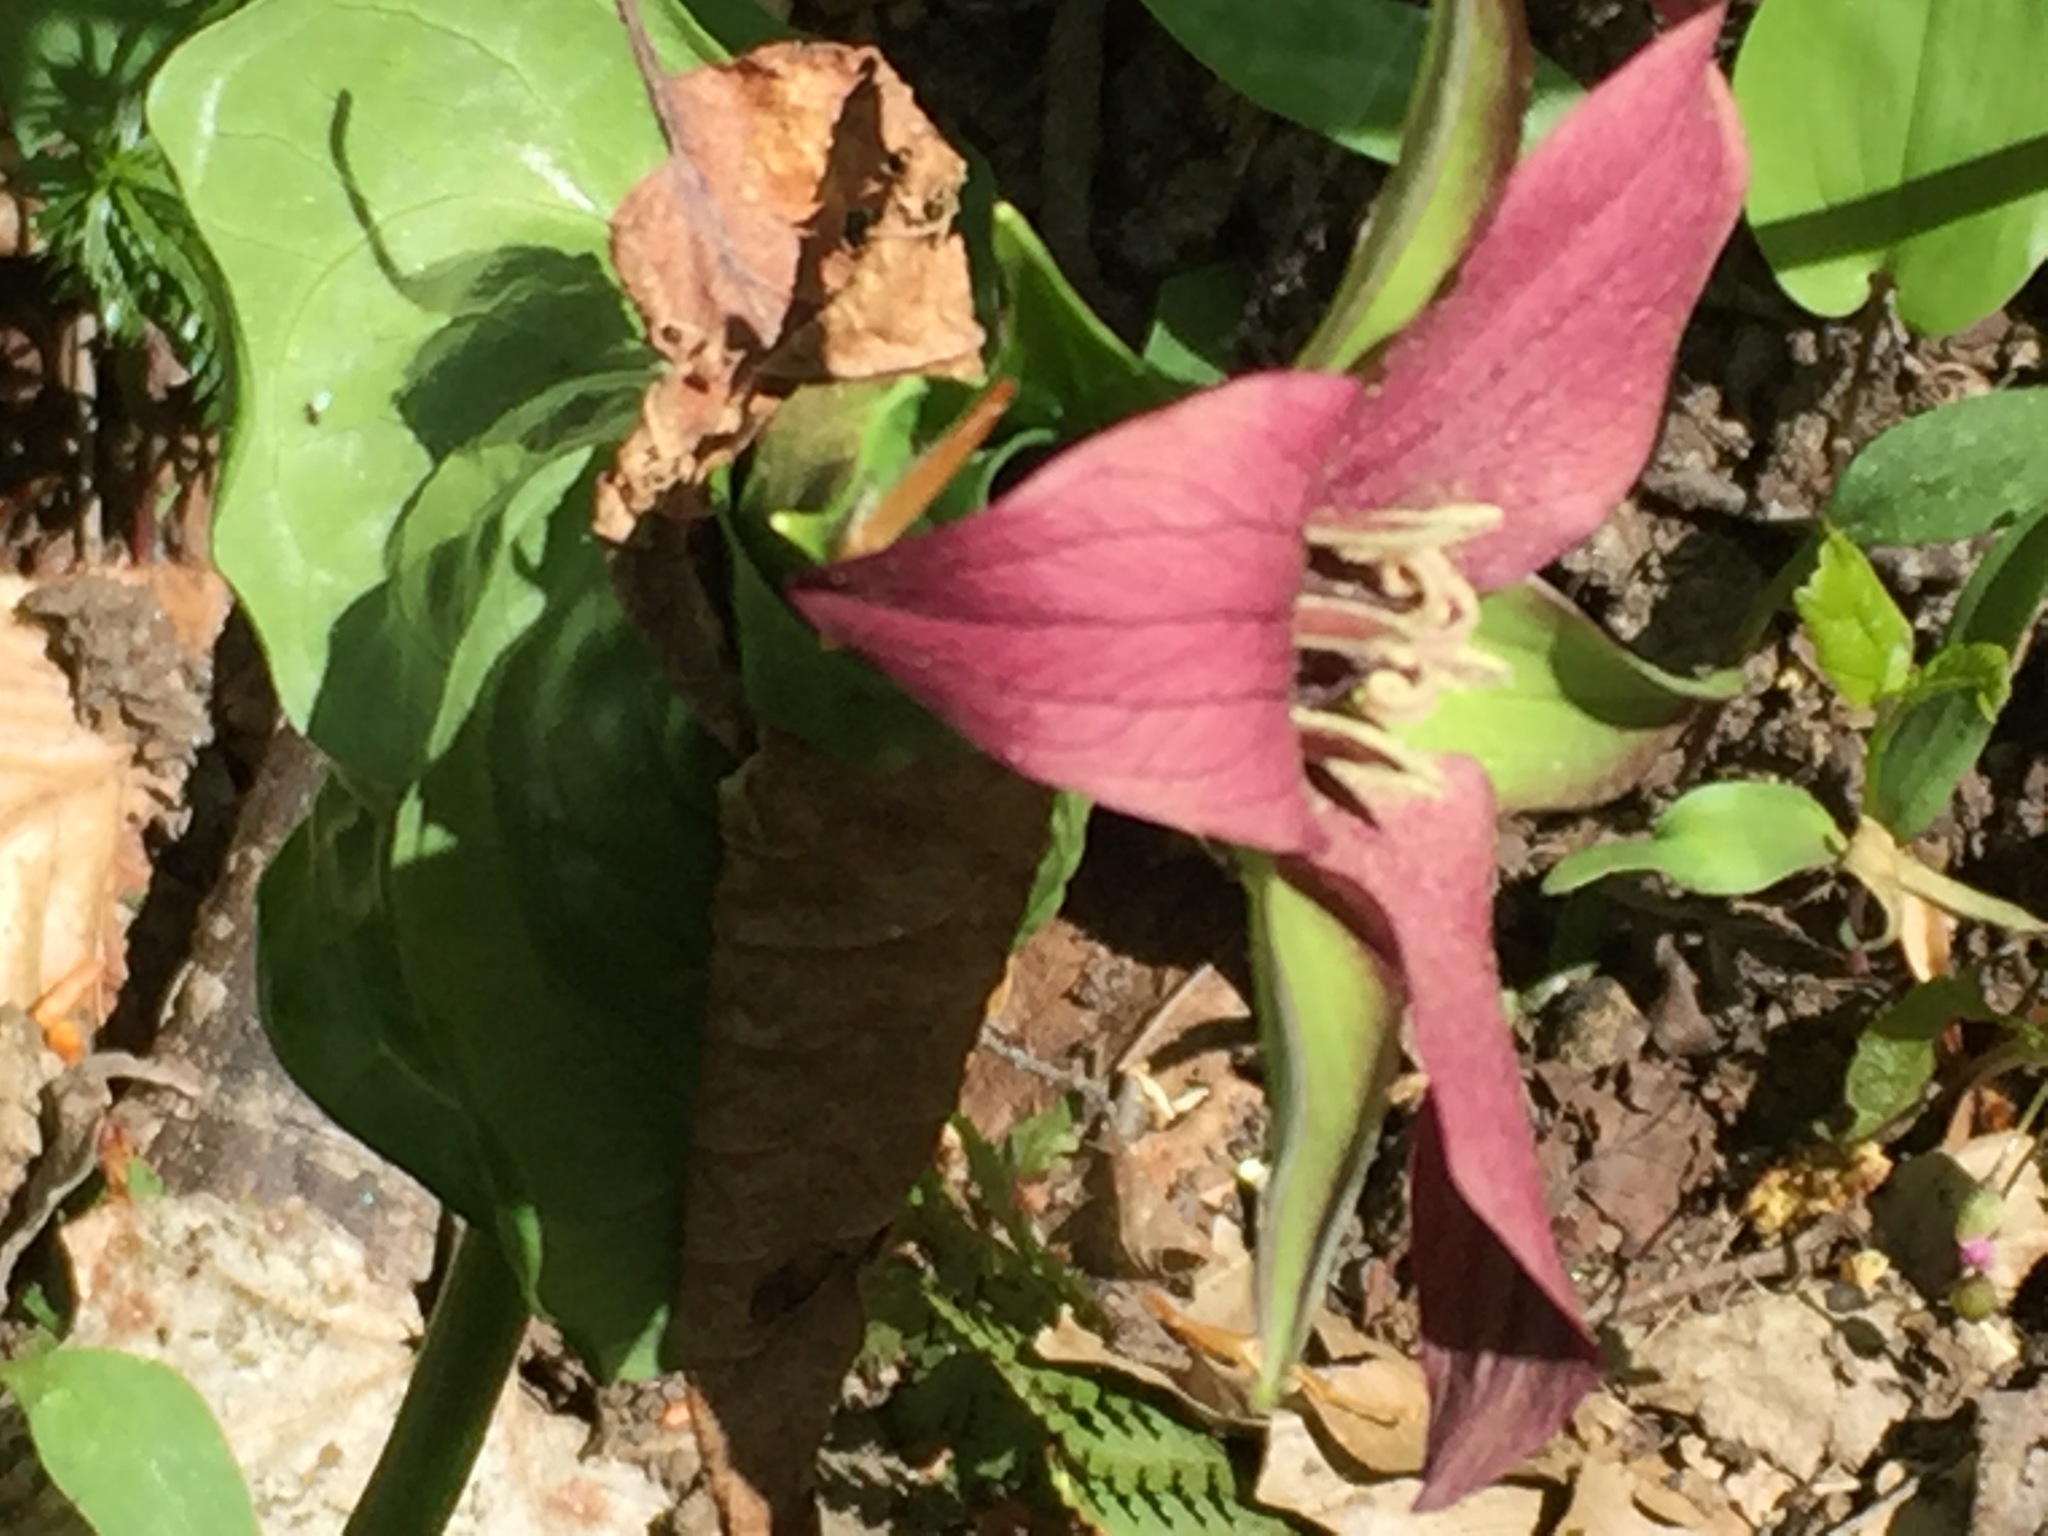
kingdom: Plantae
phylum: Tracheophyta
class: Liliopsida
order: Liliales
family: Melanthiaceae
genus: Trillium
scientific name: Trillium erectum
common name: Purple trillium
